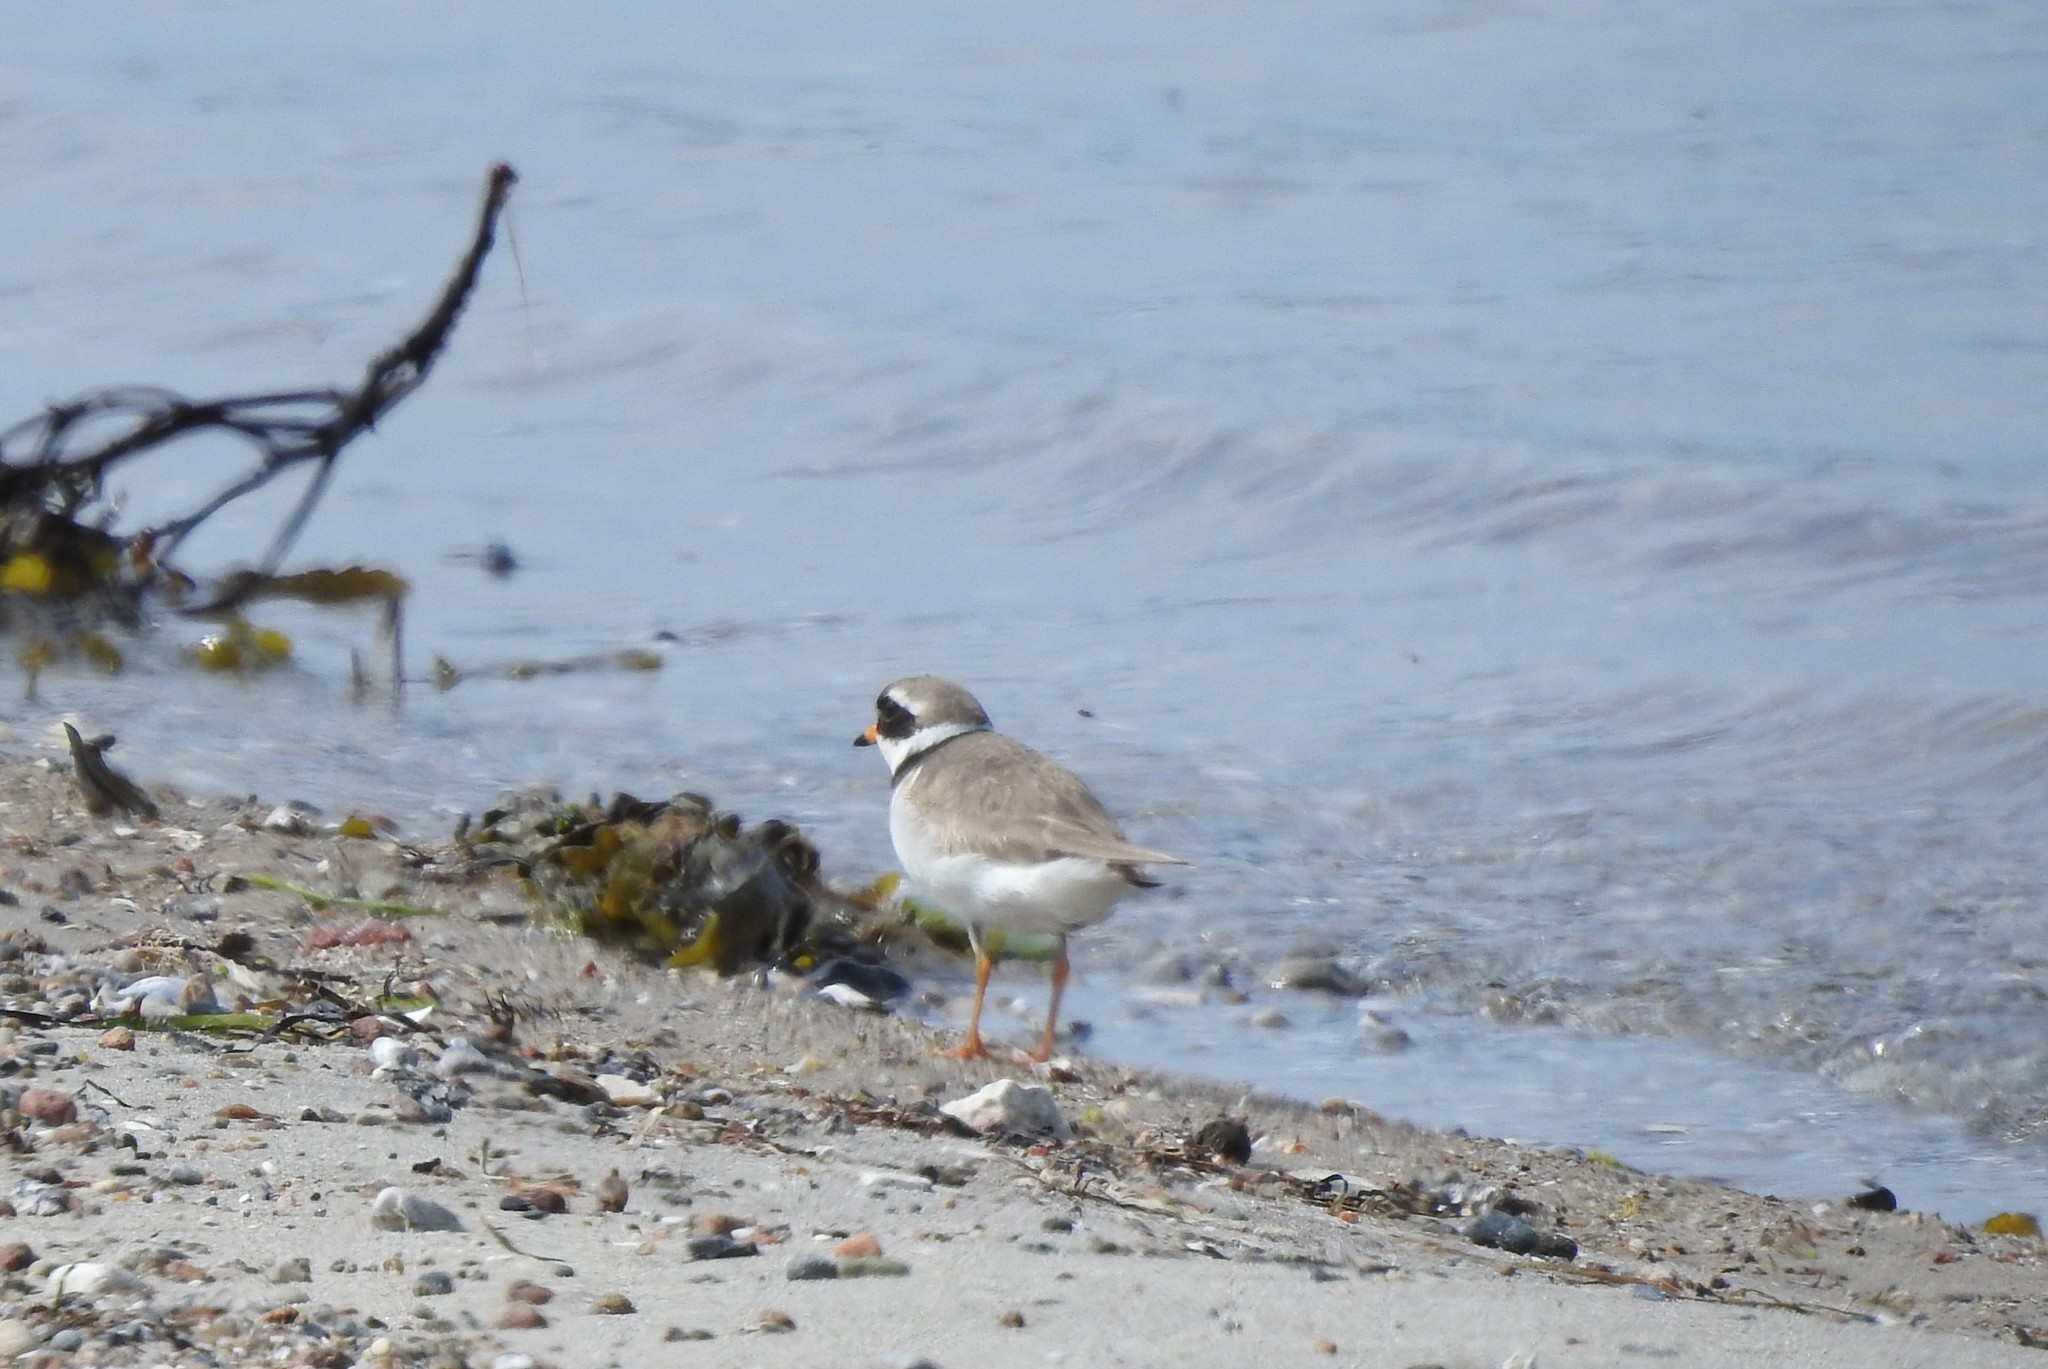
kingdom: Animalia
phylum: Chordata
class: Aves
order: Charadriiformes
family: Charadriidae
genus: Charadrius
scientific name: Charadrius hiaticula
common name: Common ringed plover
